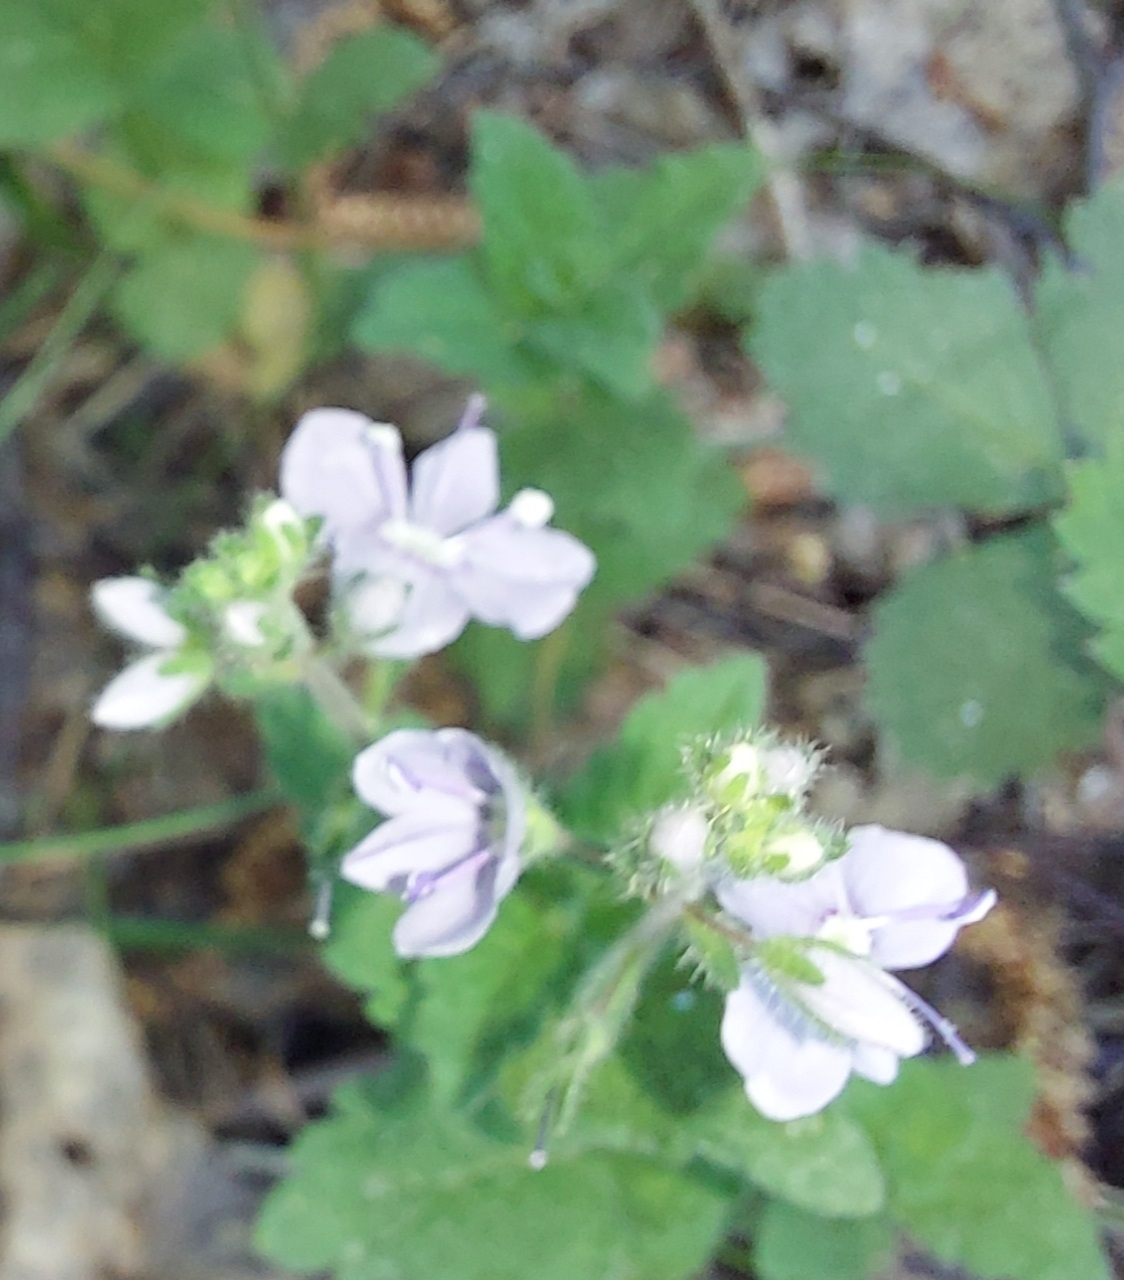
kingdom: Plantae
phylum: Tracheophyta
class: Magnoliopsida
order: Lamiales
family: Plantaginaceae
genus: Veronica
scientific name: Veronica chamaedrys
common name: Germander speedwell
